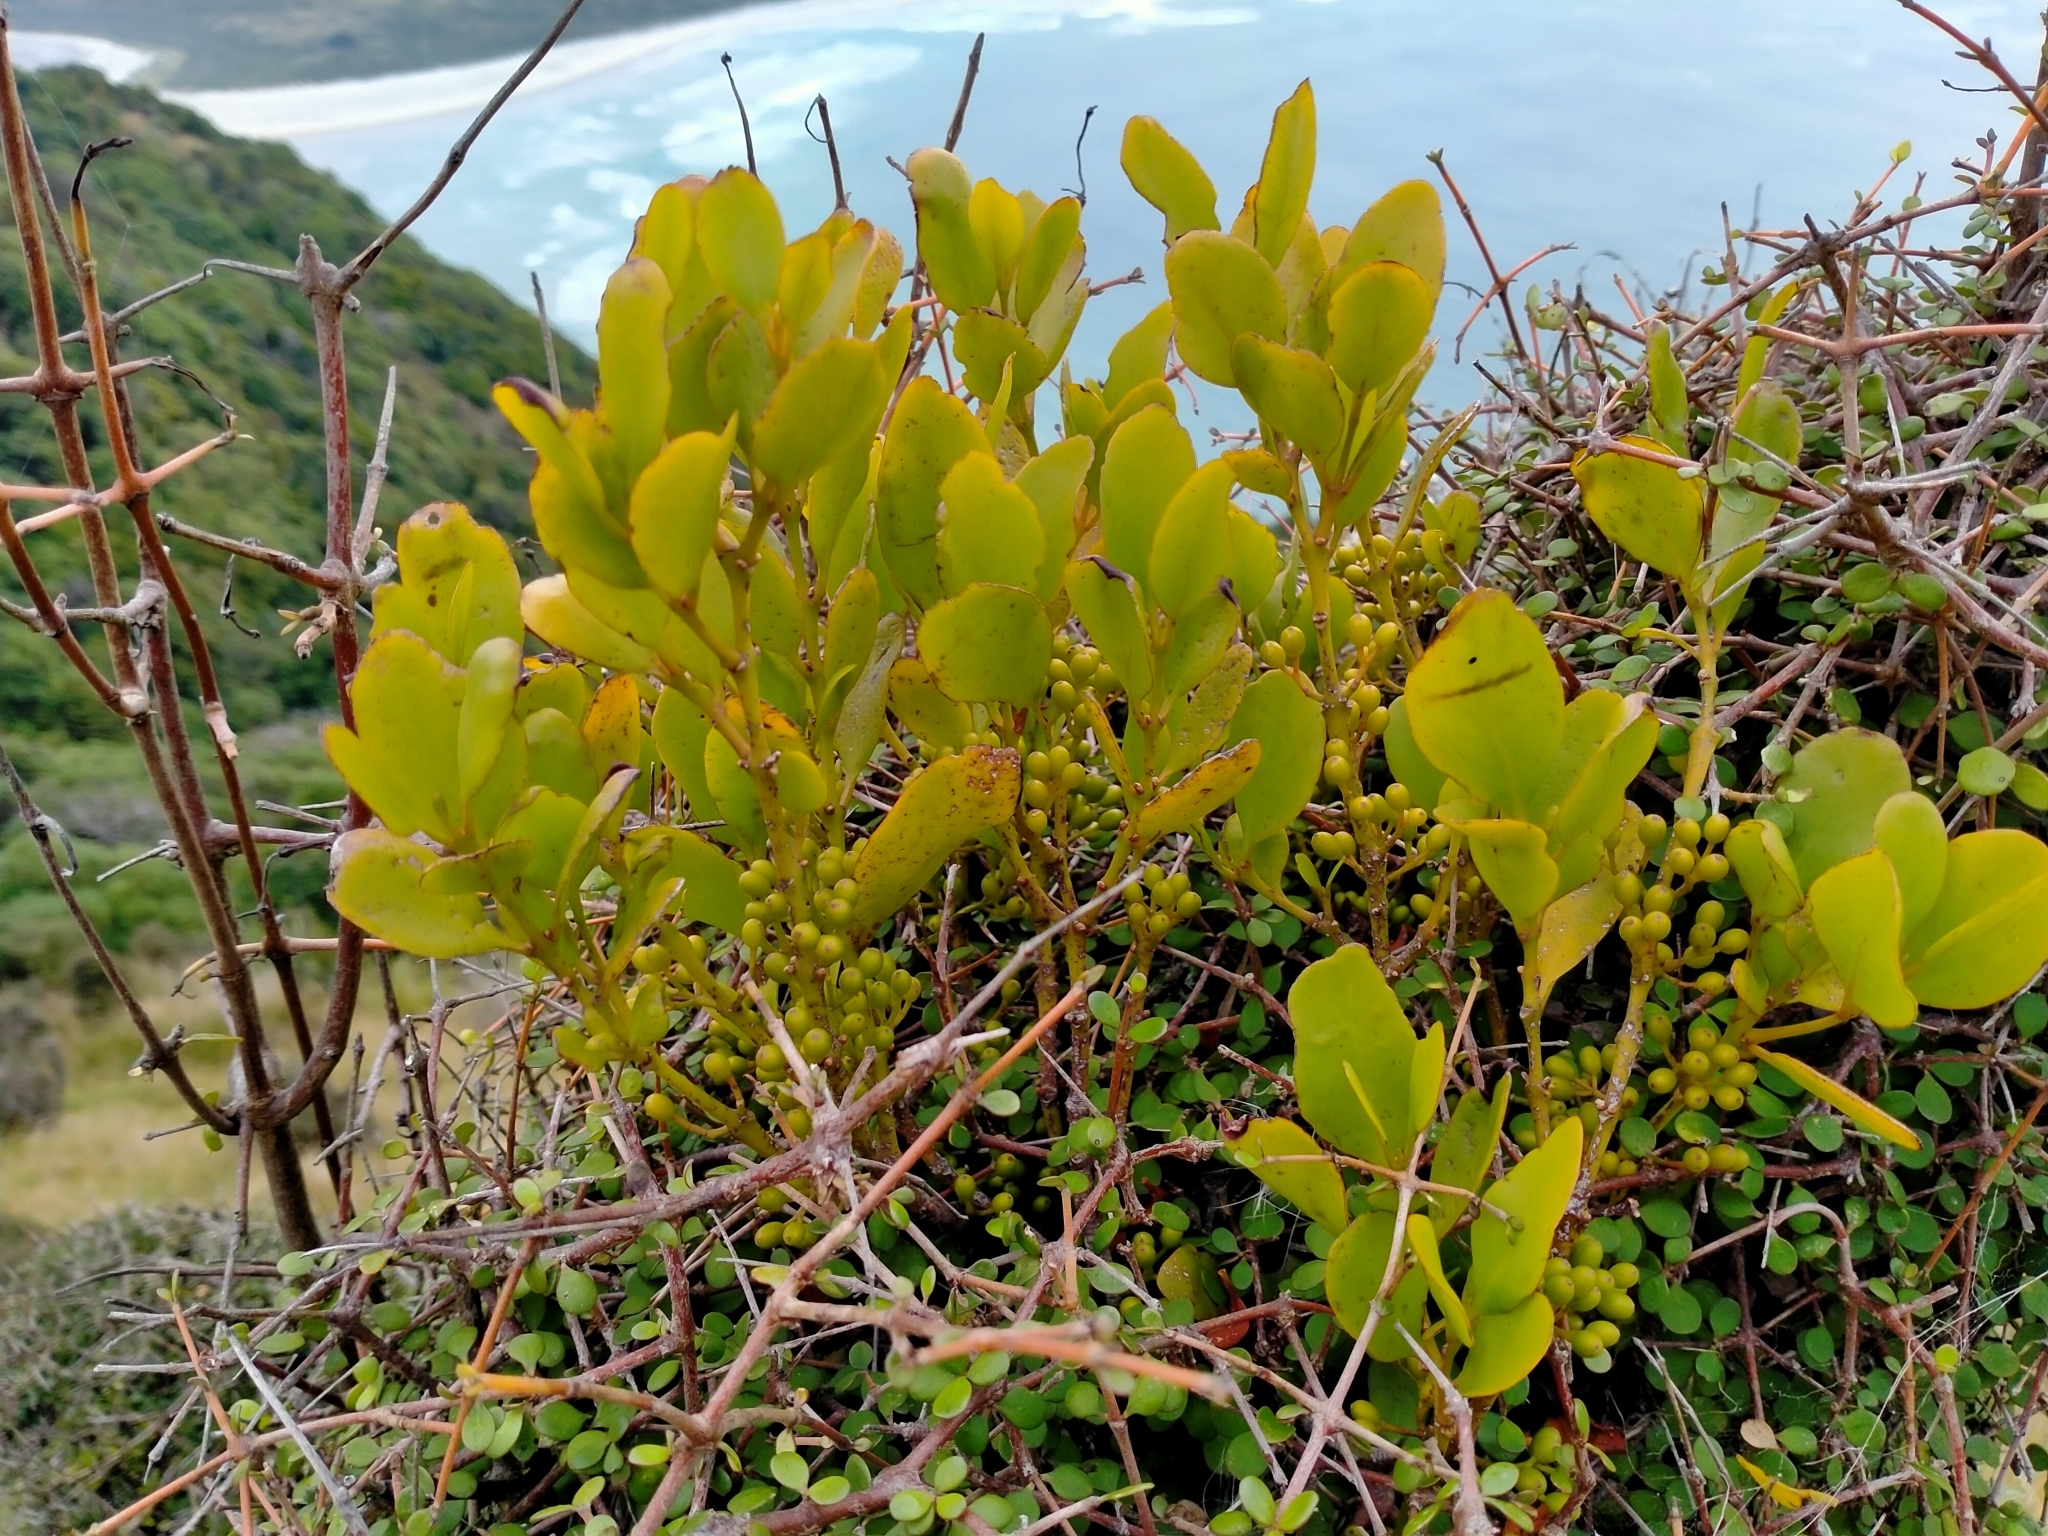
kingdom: Plantae
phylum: Tracheophyta
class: Magnoliopsida
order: Santalales
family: Loranthaceae
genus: Ileostylus
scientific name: Ileostylus micranthus
